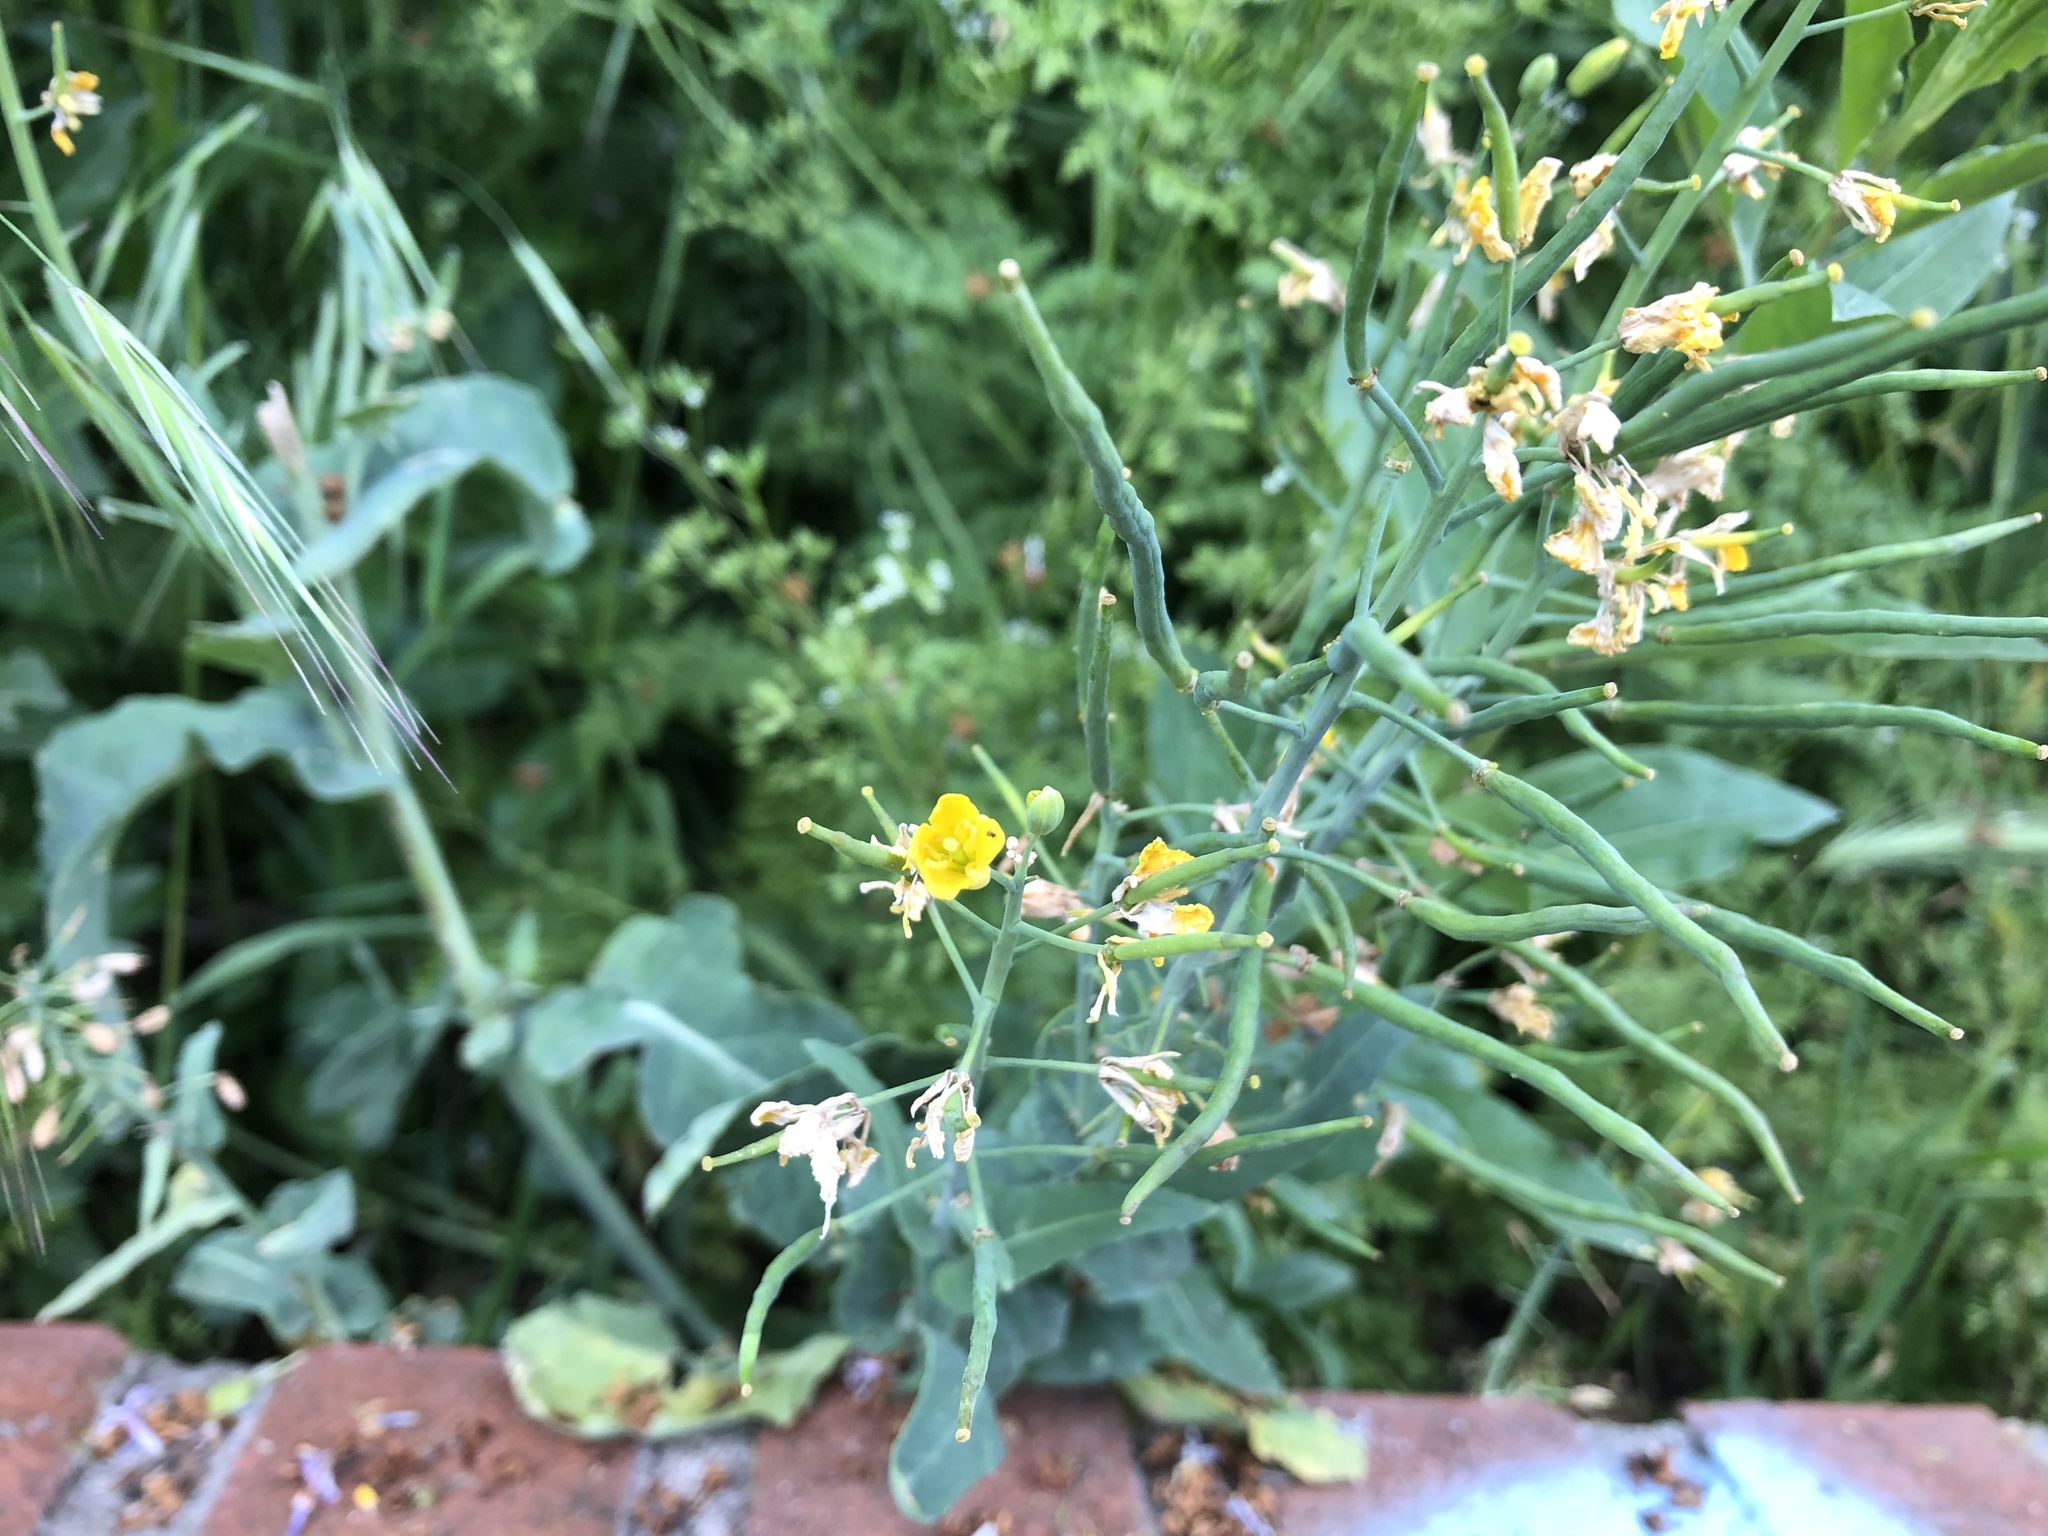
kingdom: Plantae
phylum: Tracheophyta
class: Magnoliopsida
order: Brassicales
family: Brassicaceae
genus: Brassica
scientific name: Brassica napus
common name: Rape
